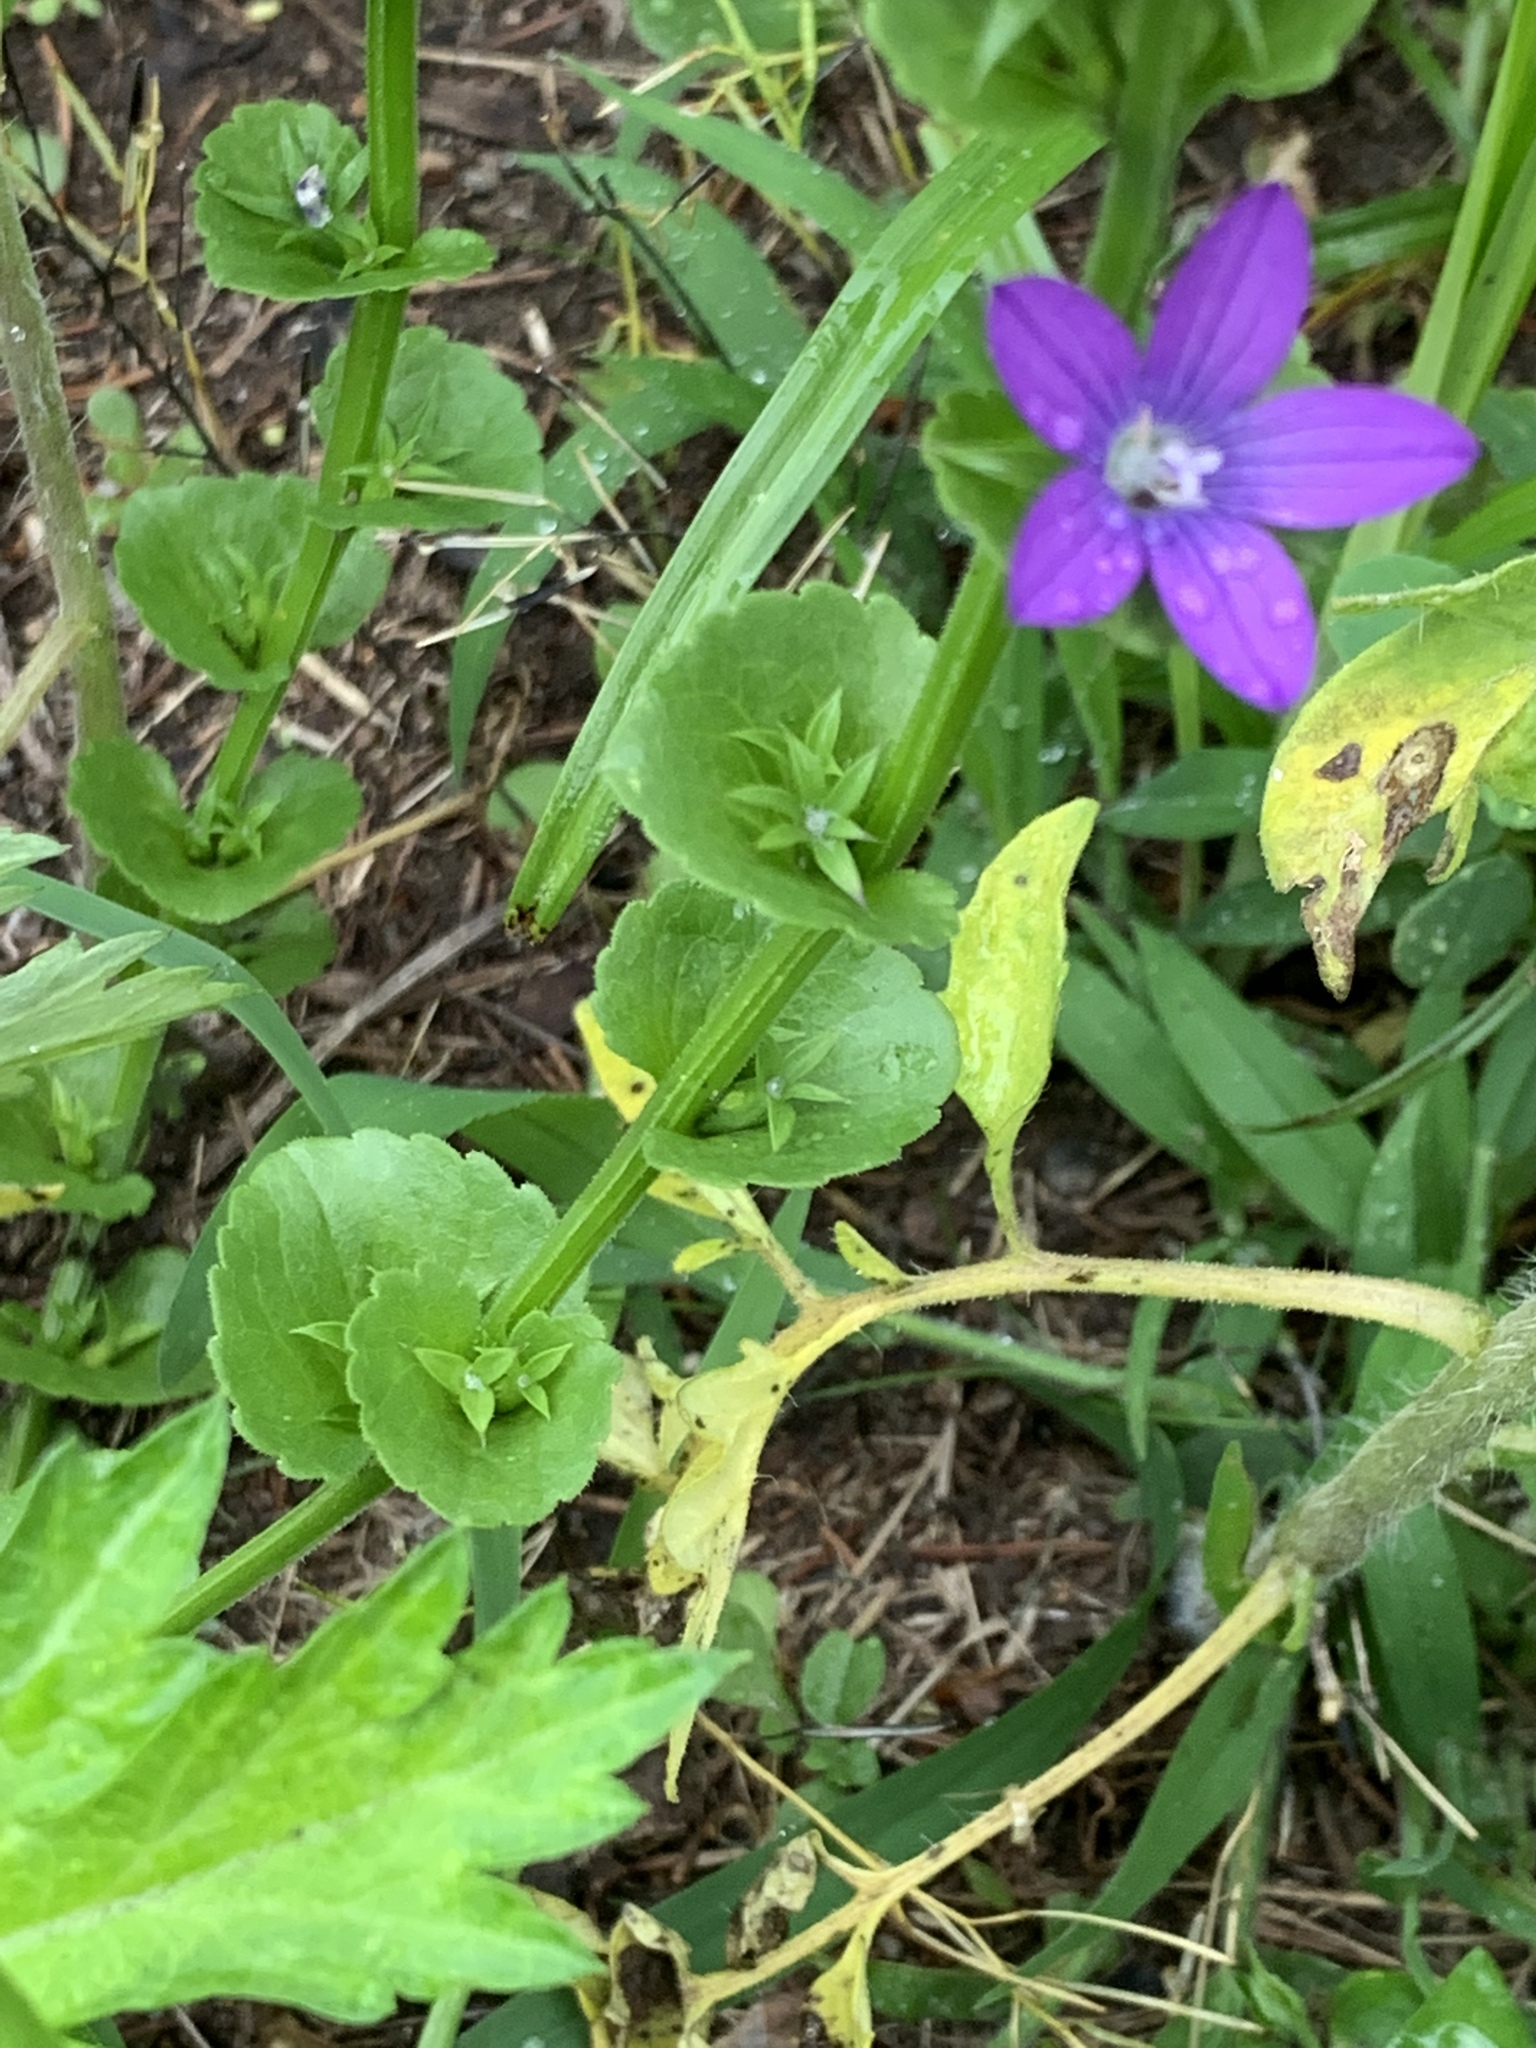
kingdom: Plantae
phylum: Tracheophyta
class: Magnoliopsida
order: Asterales
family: Campanulaceae
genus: Triodanis
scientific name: Triodanis perfoliata
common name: Clasping venus' looking-glass
